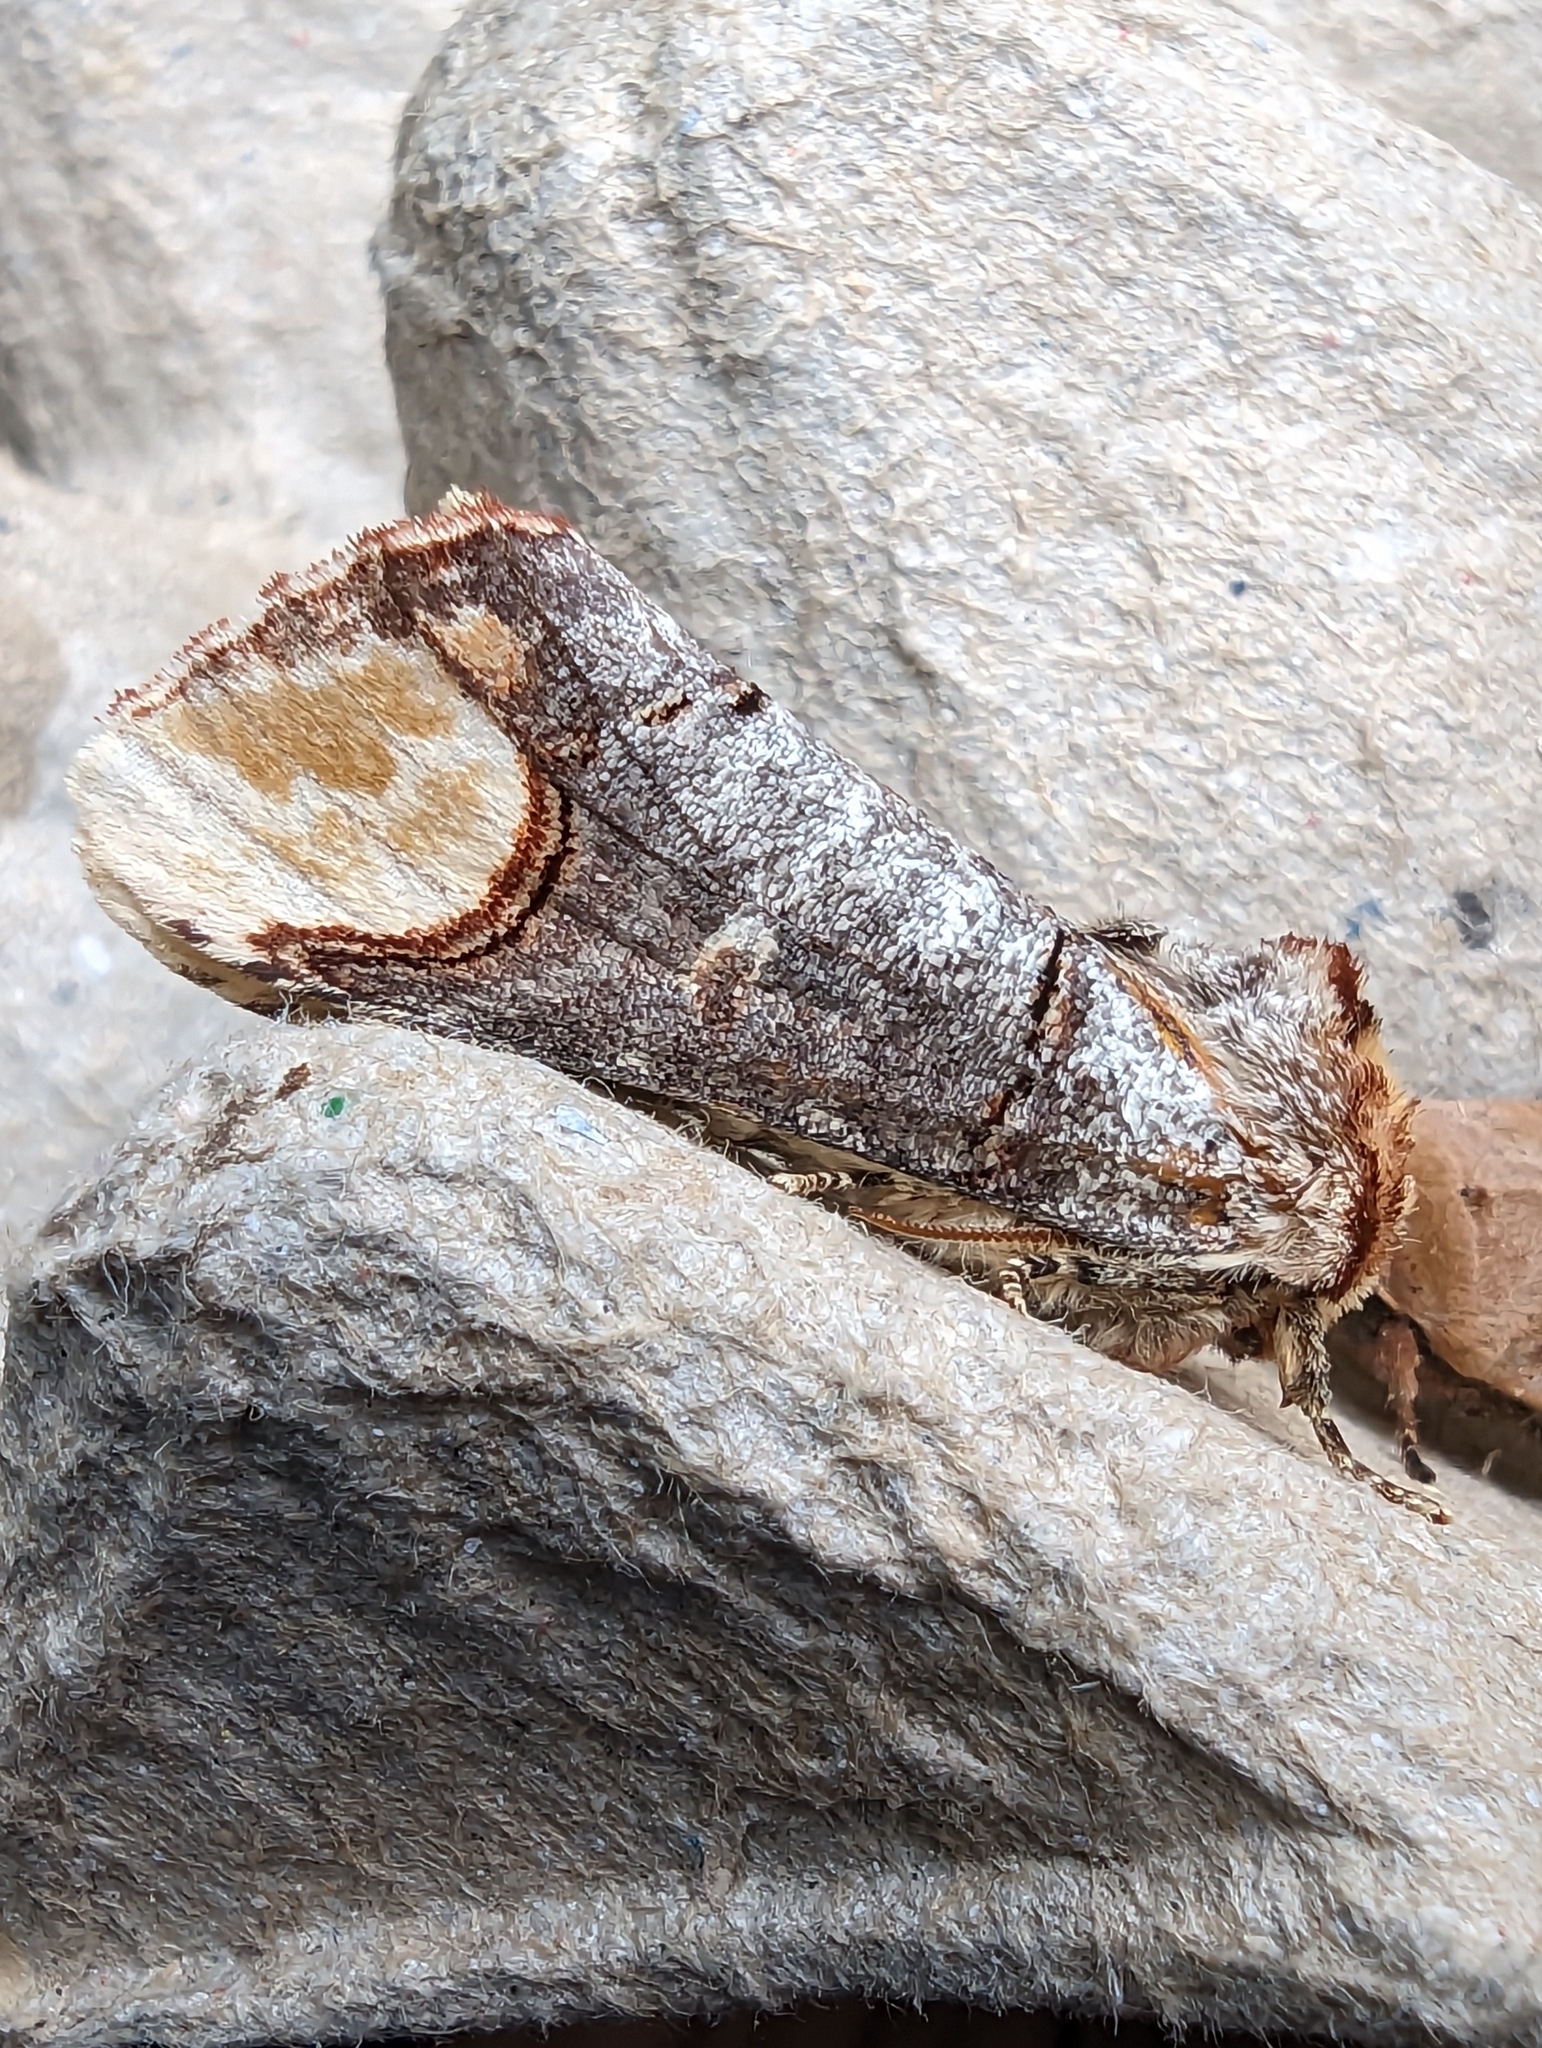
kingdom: Animalia
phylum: Arthropoda
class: Insecta
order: Lepidoptera
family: Notodontidae
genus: Phalera
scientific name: Phalera bucephala
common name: Buff-tip
